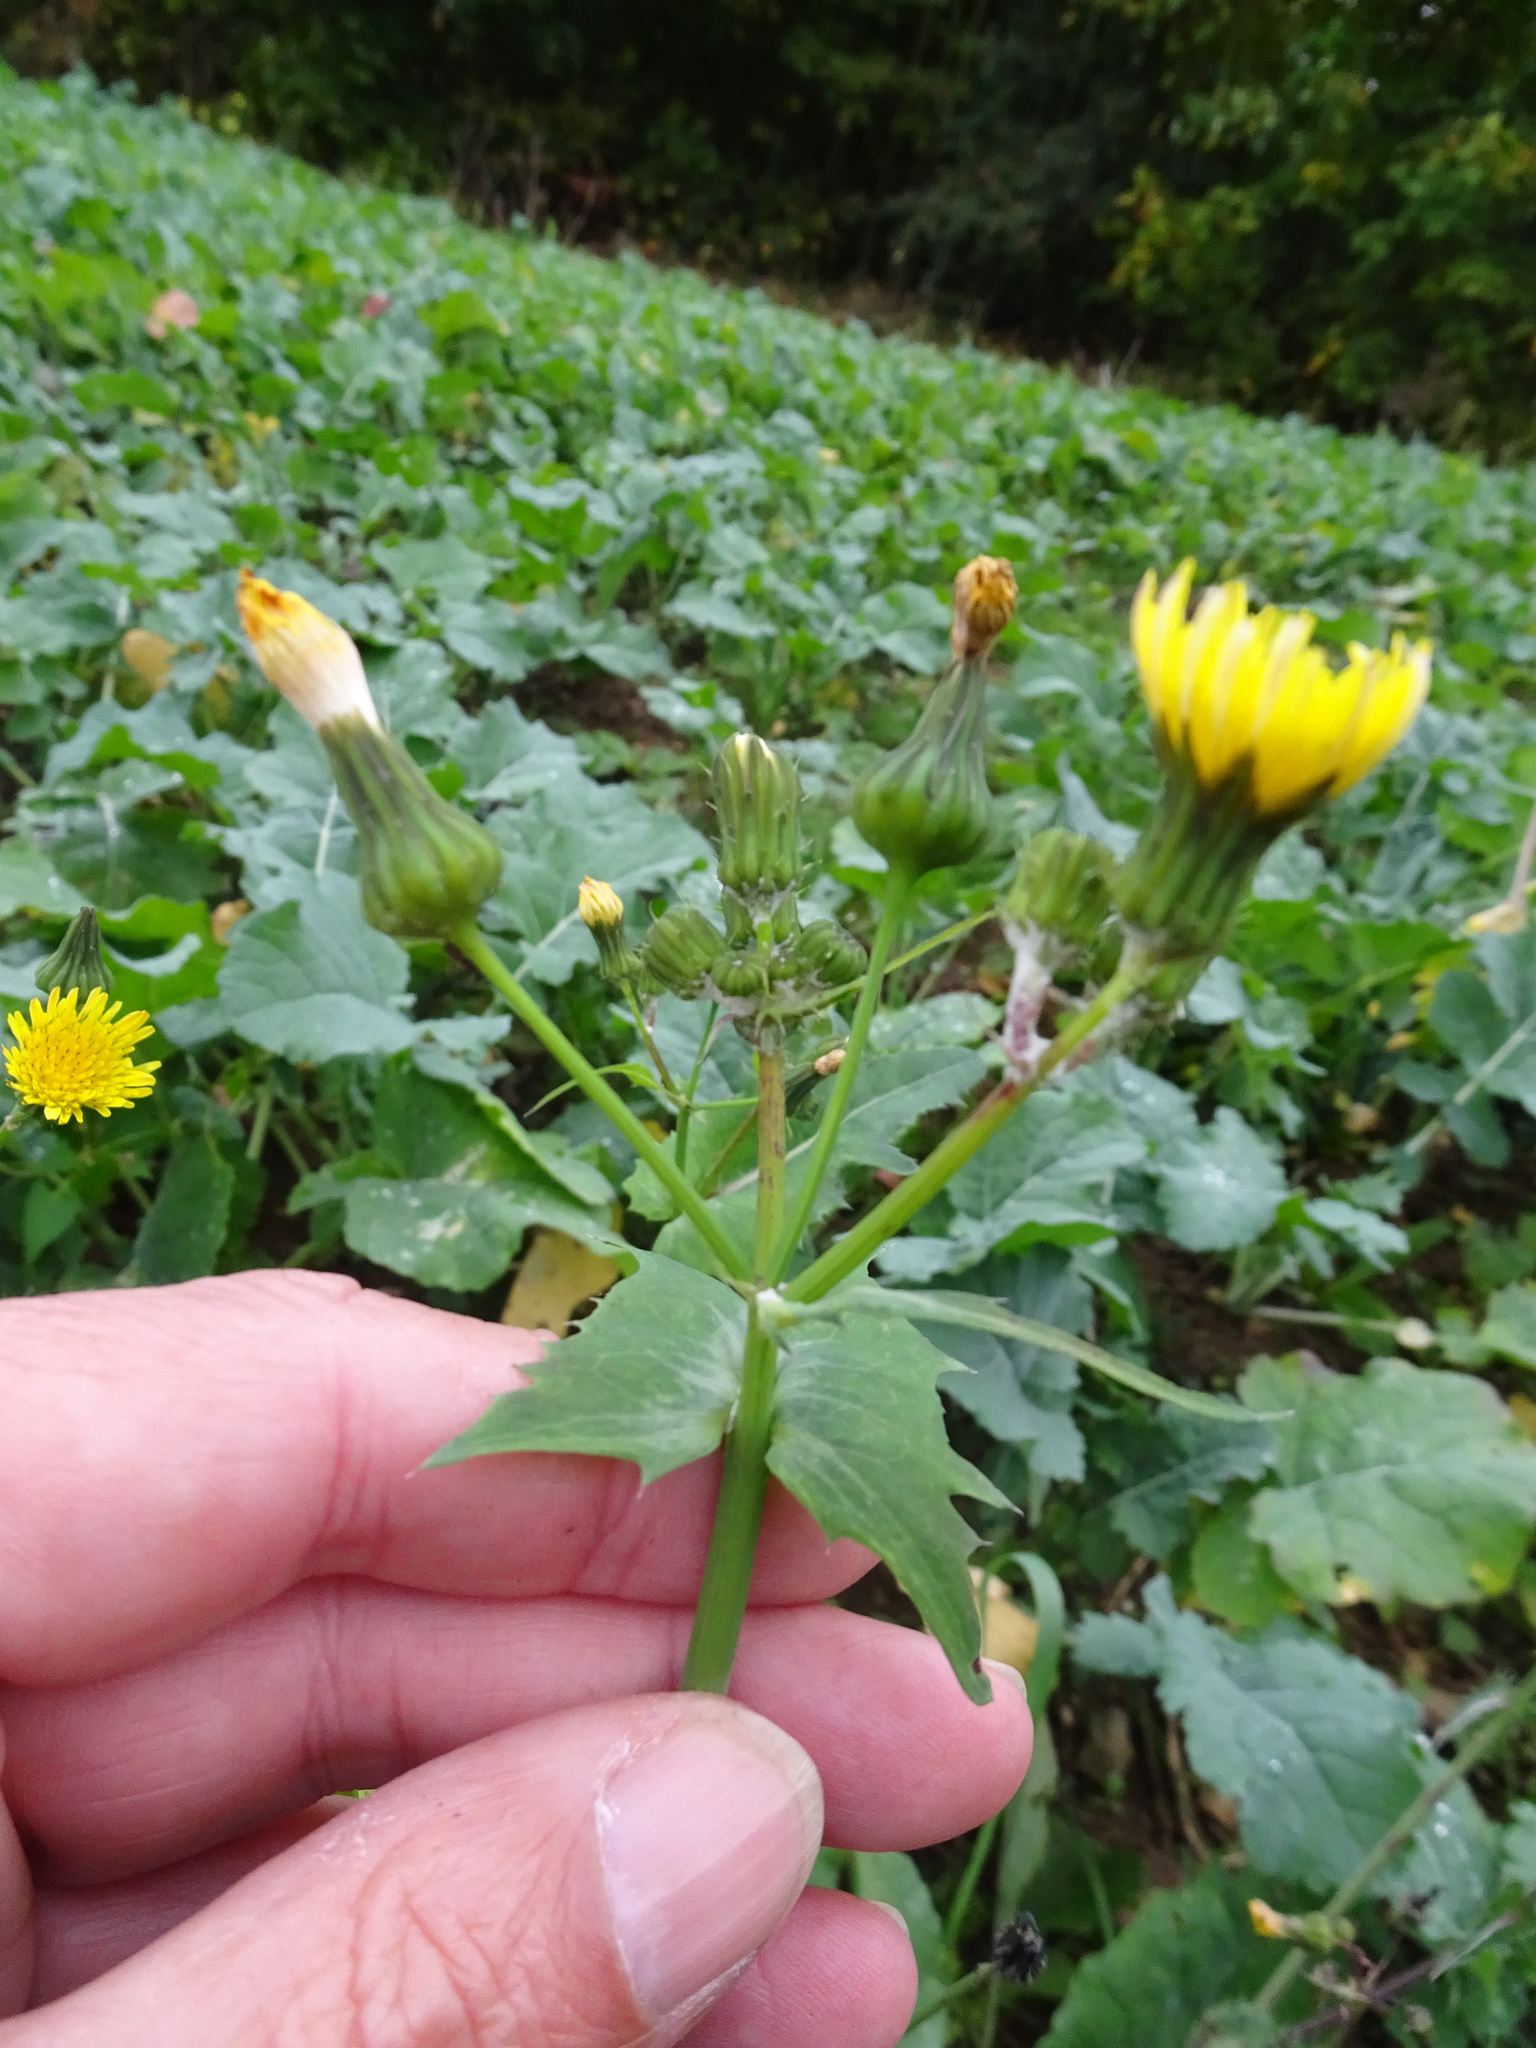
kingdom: Plantae
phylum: Tracheophyta
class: Magnoliopsida
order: Asterales
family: Asteraceae
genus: Sonchus
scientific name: Sonchus oleraceus
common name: Common sowthistle
